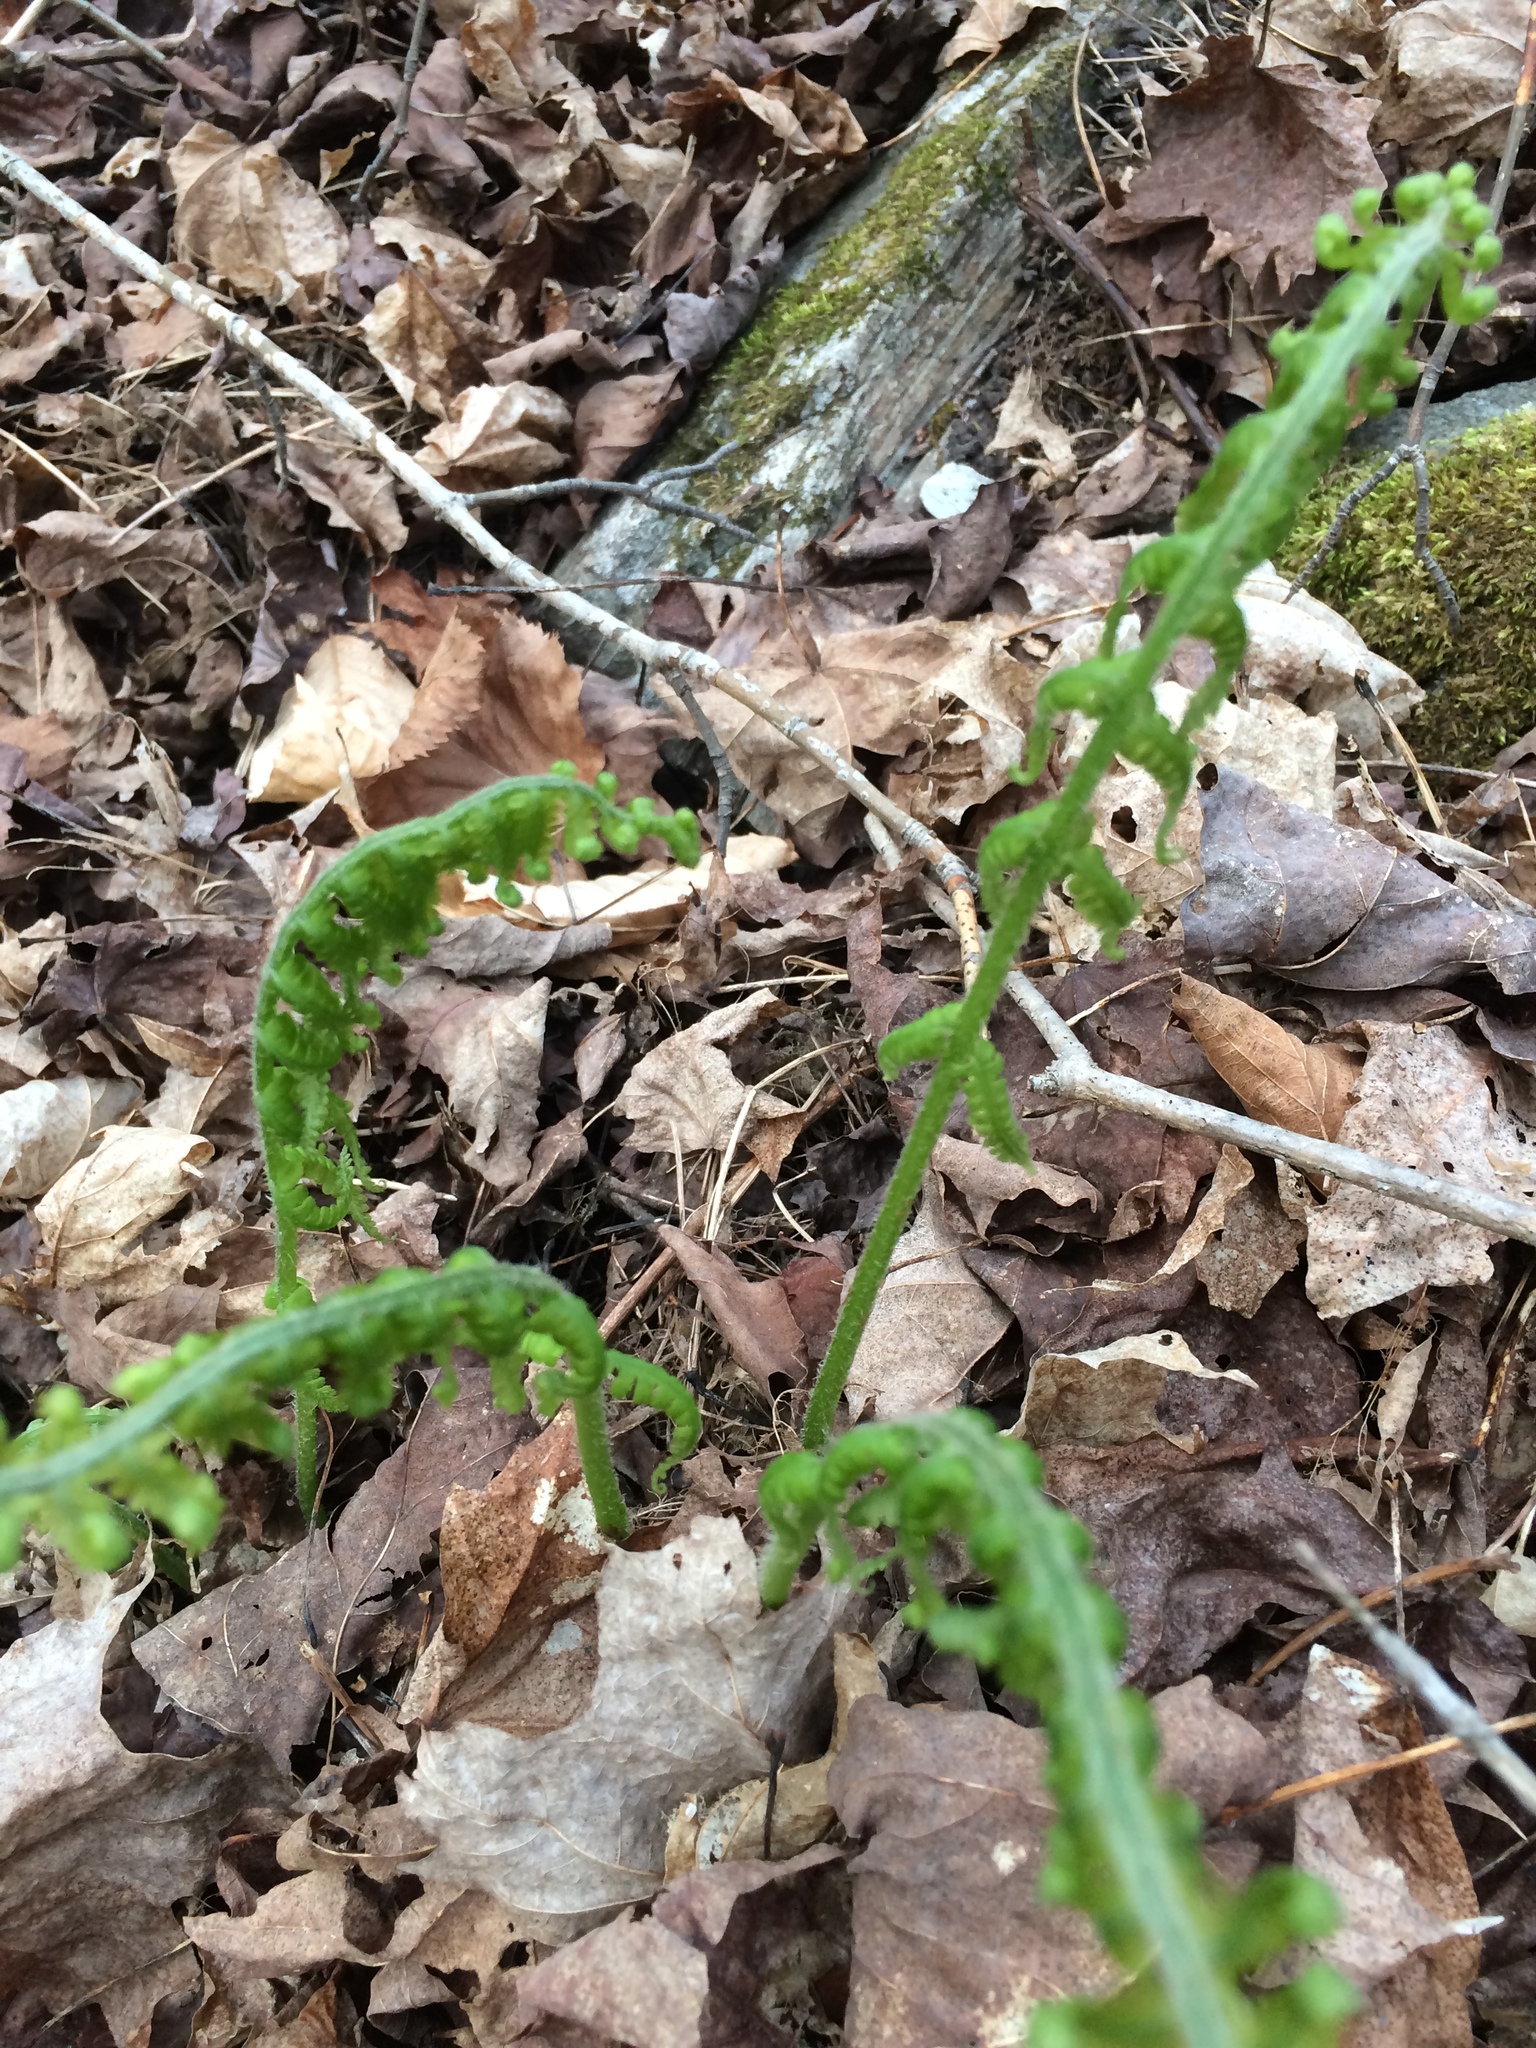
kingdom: Plantae
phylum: Tracheophyta
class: Polypodiopsida
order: Polypodiales
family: Athyriaceae
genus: Deparia
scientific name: Deparia acrostichoides
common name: Silver false spleenwort
